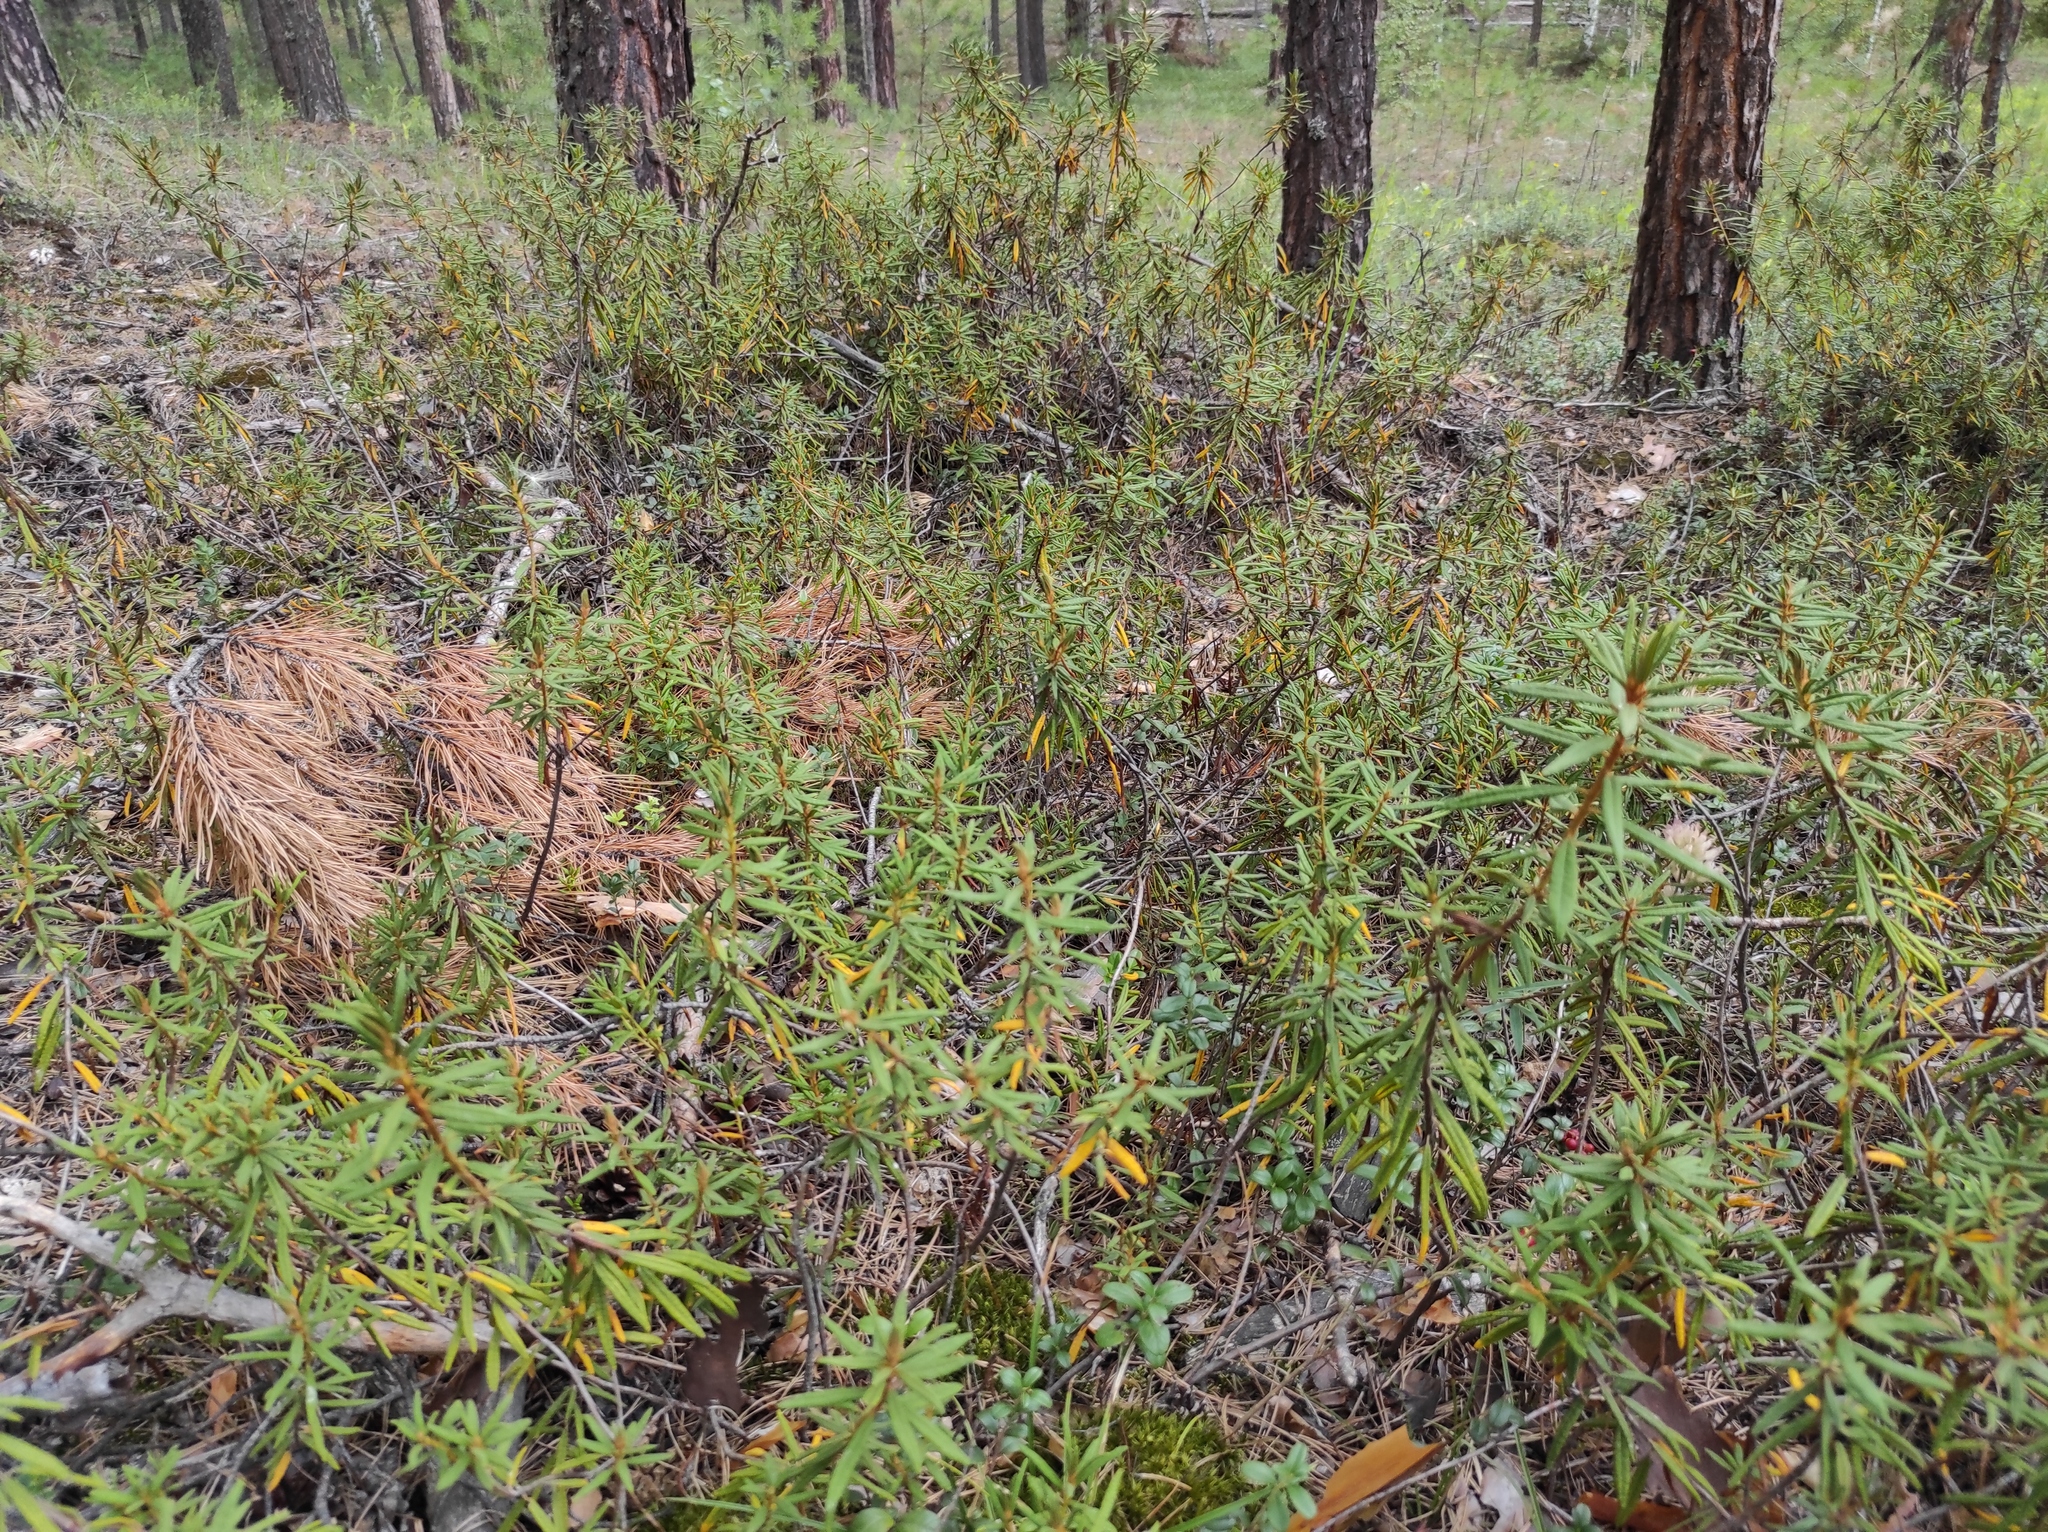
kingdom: Plantae
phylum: Tracheophyta
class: Magnoliopsida
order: Ericales
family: Ericaceae
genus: Rhododendron
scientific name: Rhododendron tomentosum
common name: Marsh labrador tea
